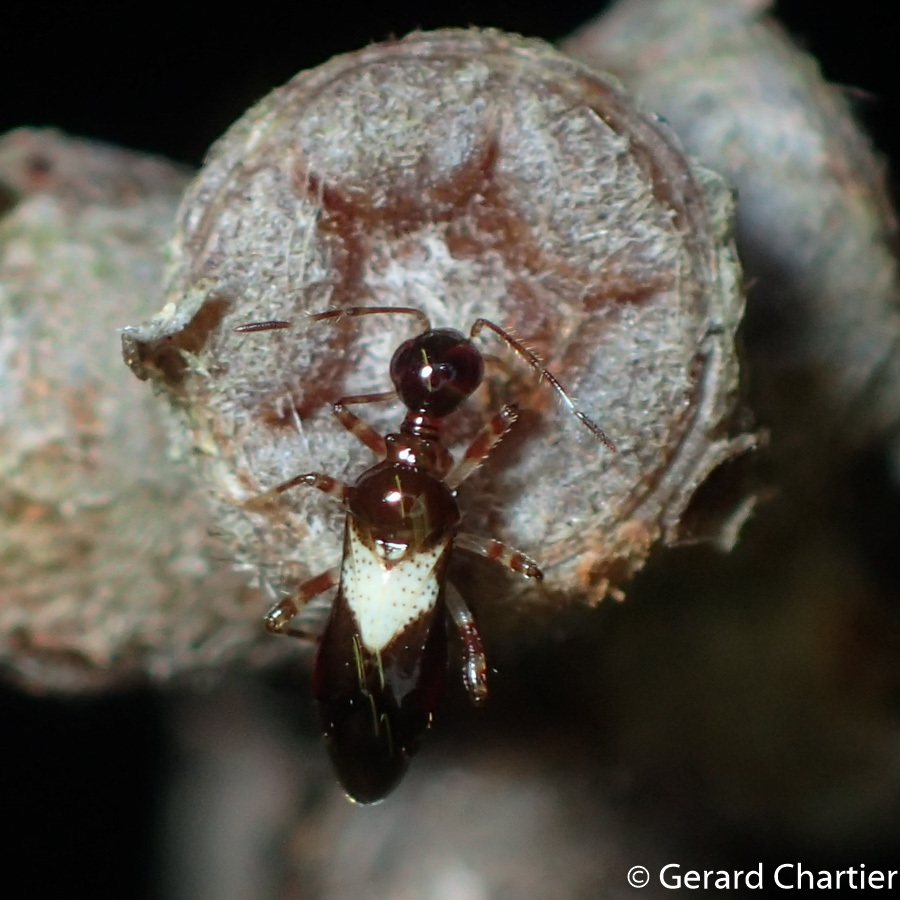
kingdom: Animalia
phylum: Arthropoda
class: Insecta
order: Hemiptera
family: Miridae
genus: Nicostratus
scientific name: Nicostratus minor
